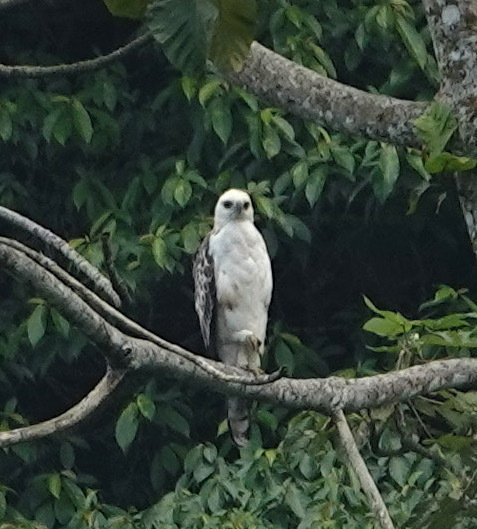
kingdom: Animalia
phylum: Chordata
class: Aves
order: Accipitriformes
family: Accipitridae
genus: Nisaetus
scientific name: Nisaetus cirrhatus
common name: Changeable hawk-eagle
